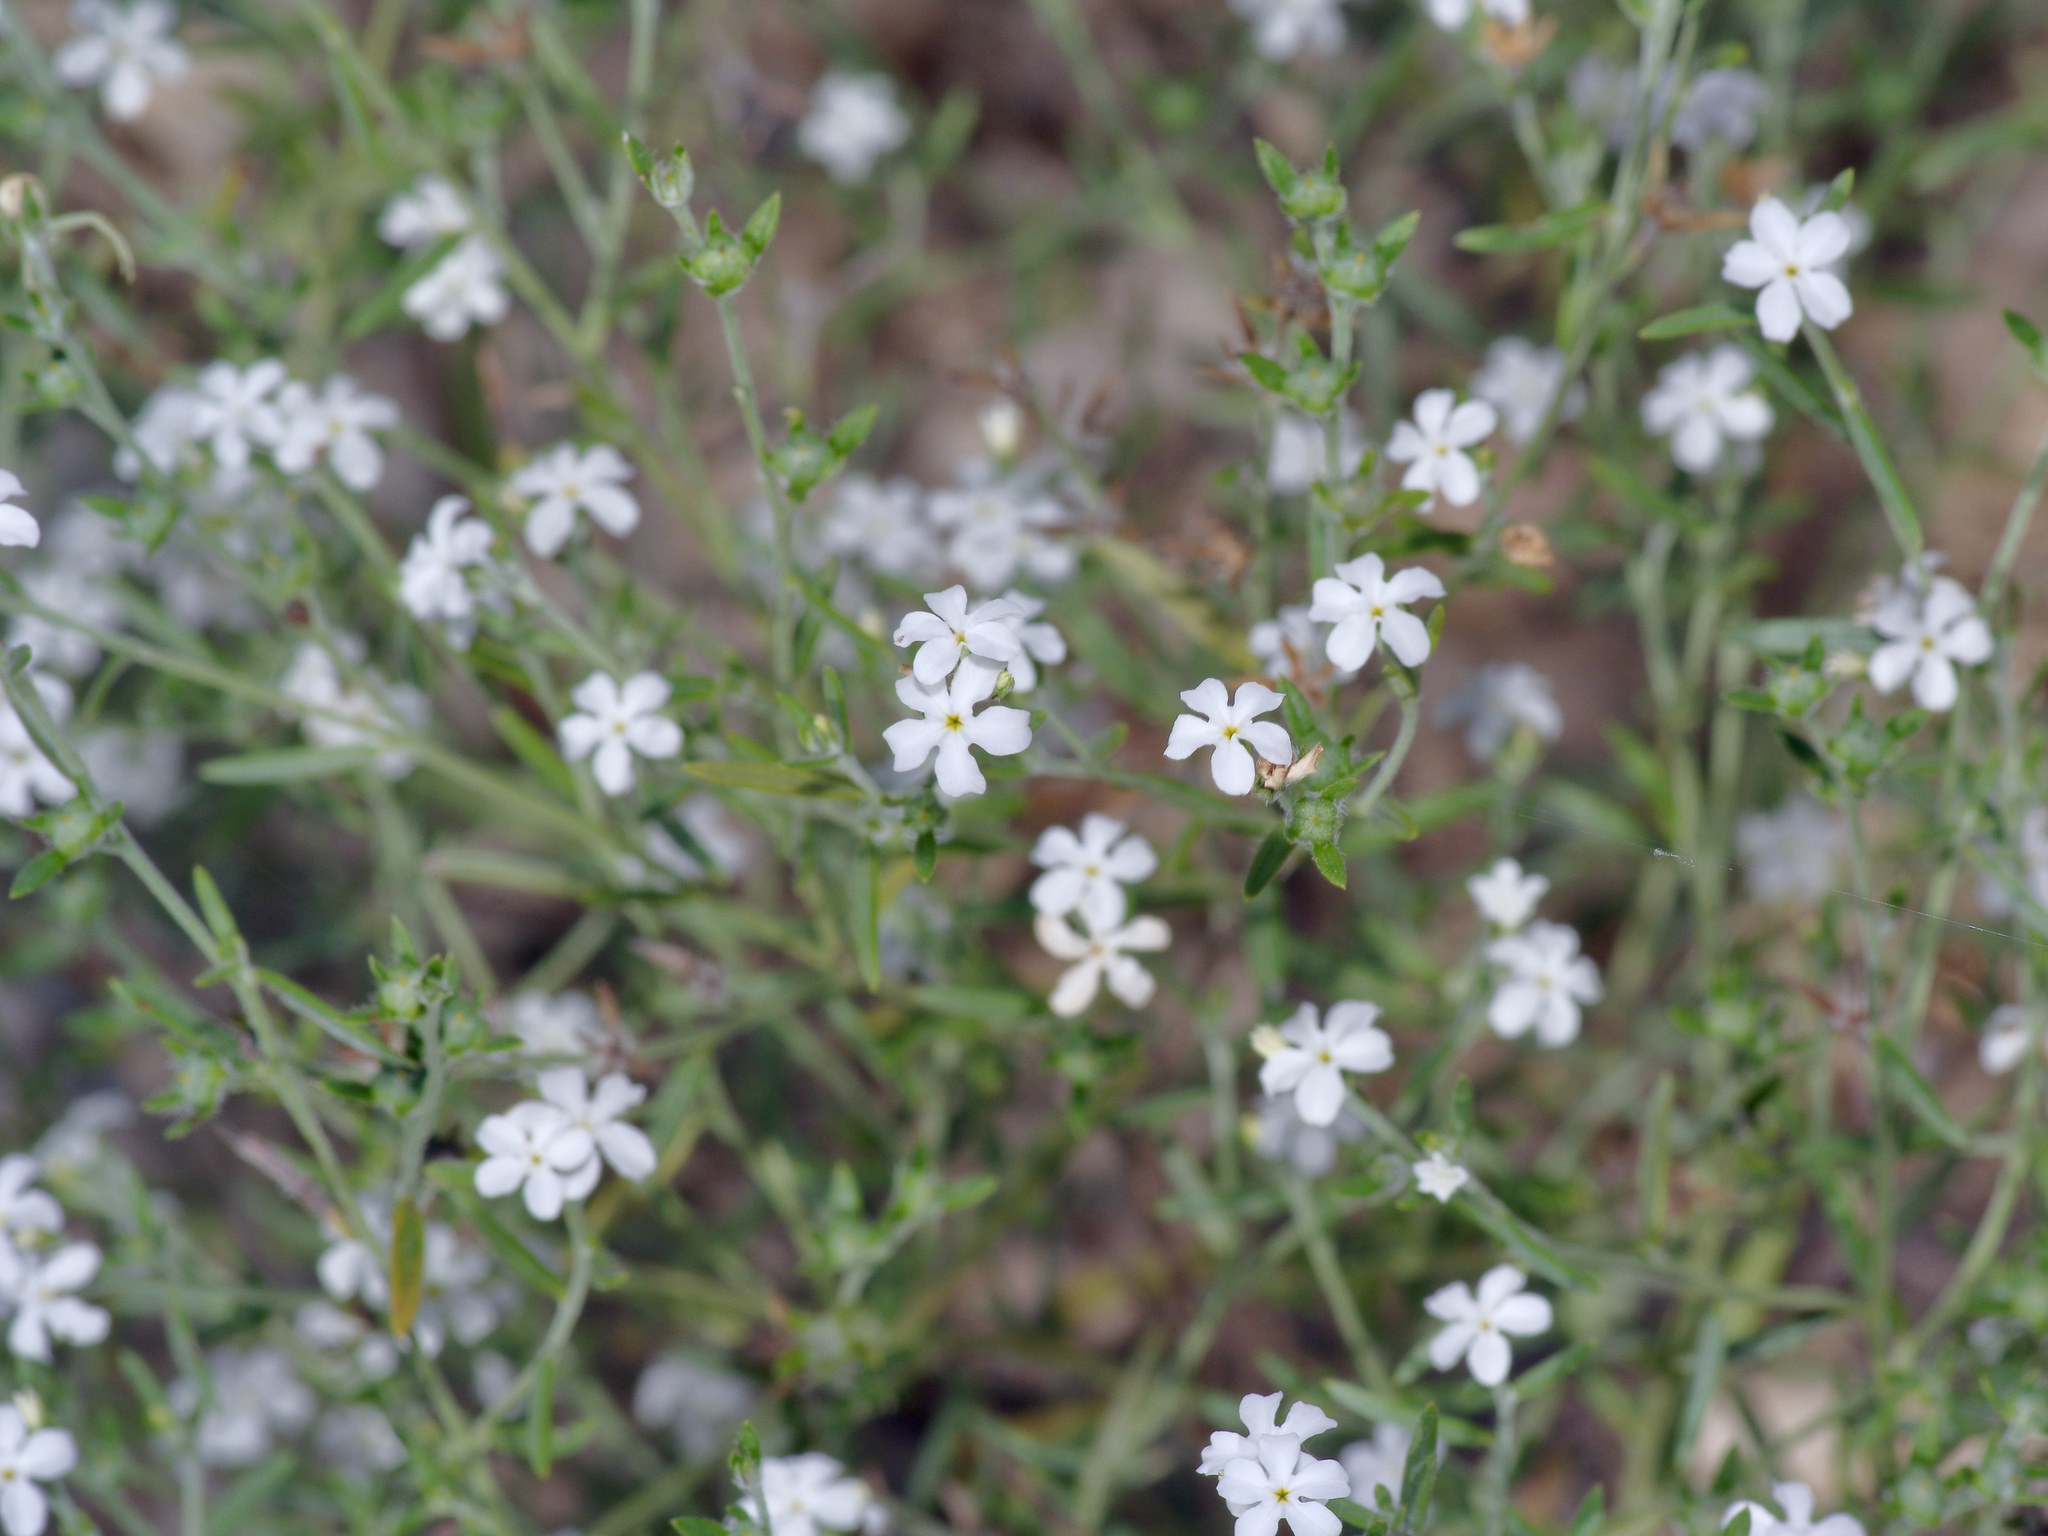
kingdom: Plantae
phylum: Tracheophyta
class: Magnoliopsida
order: Boraginales
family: Heliotropiaceae
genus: Euploca
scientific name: Euploca tenella
